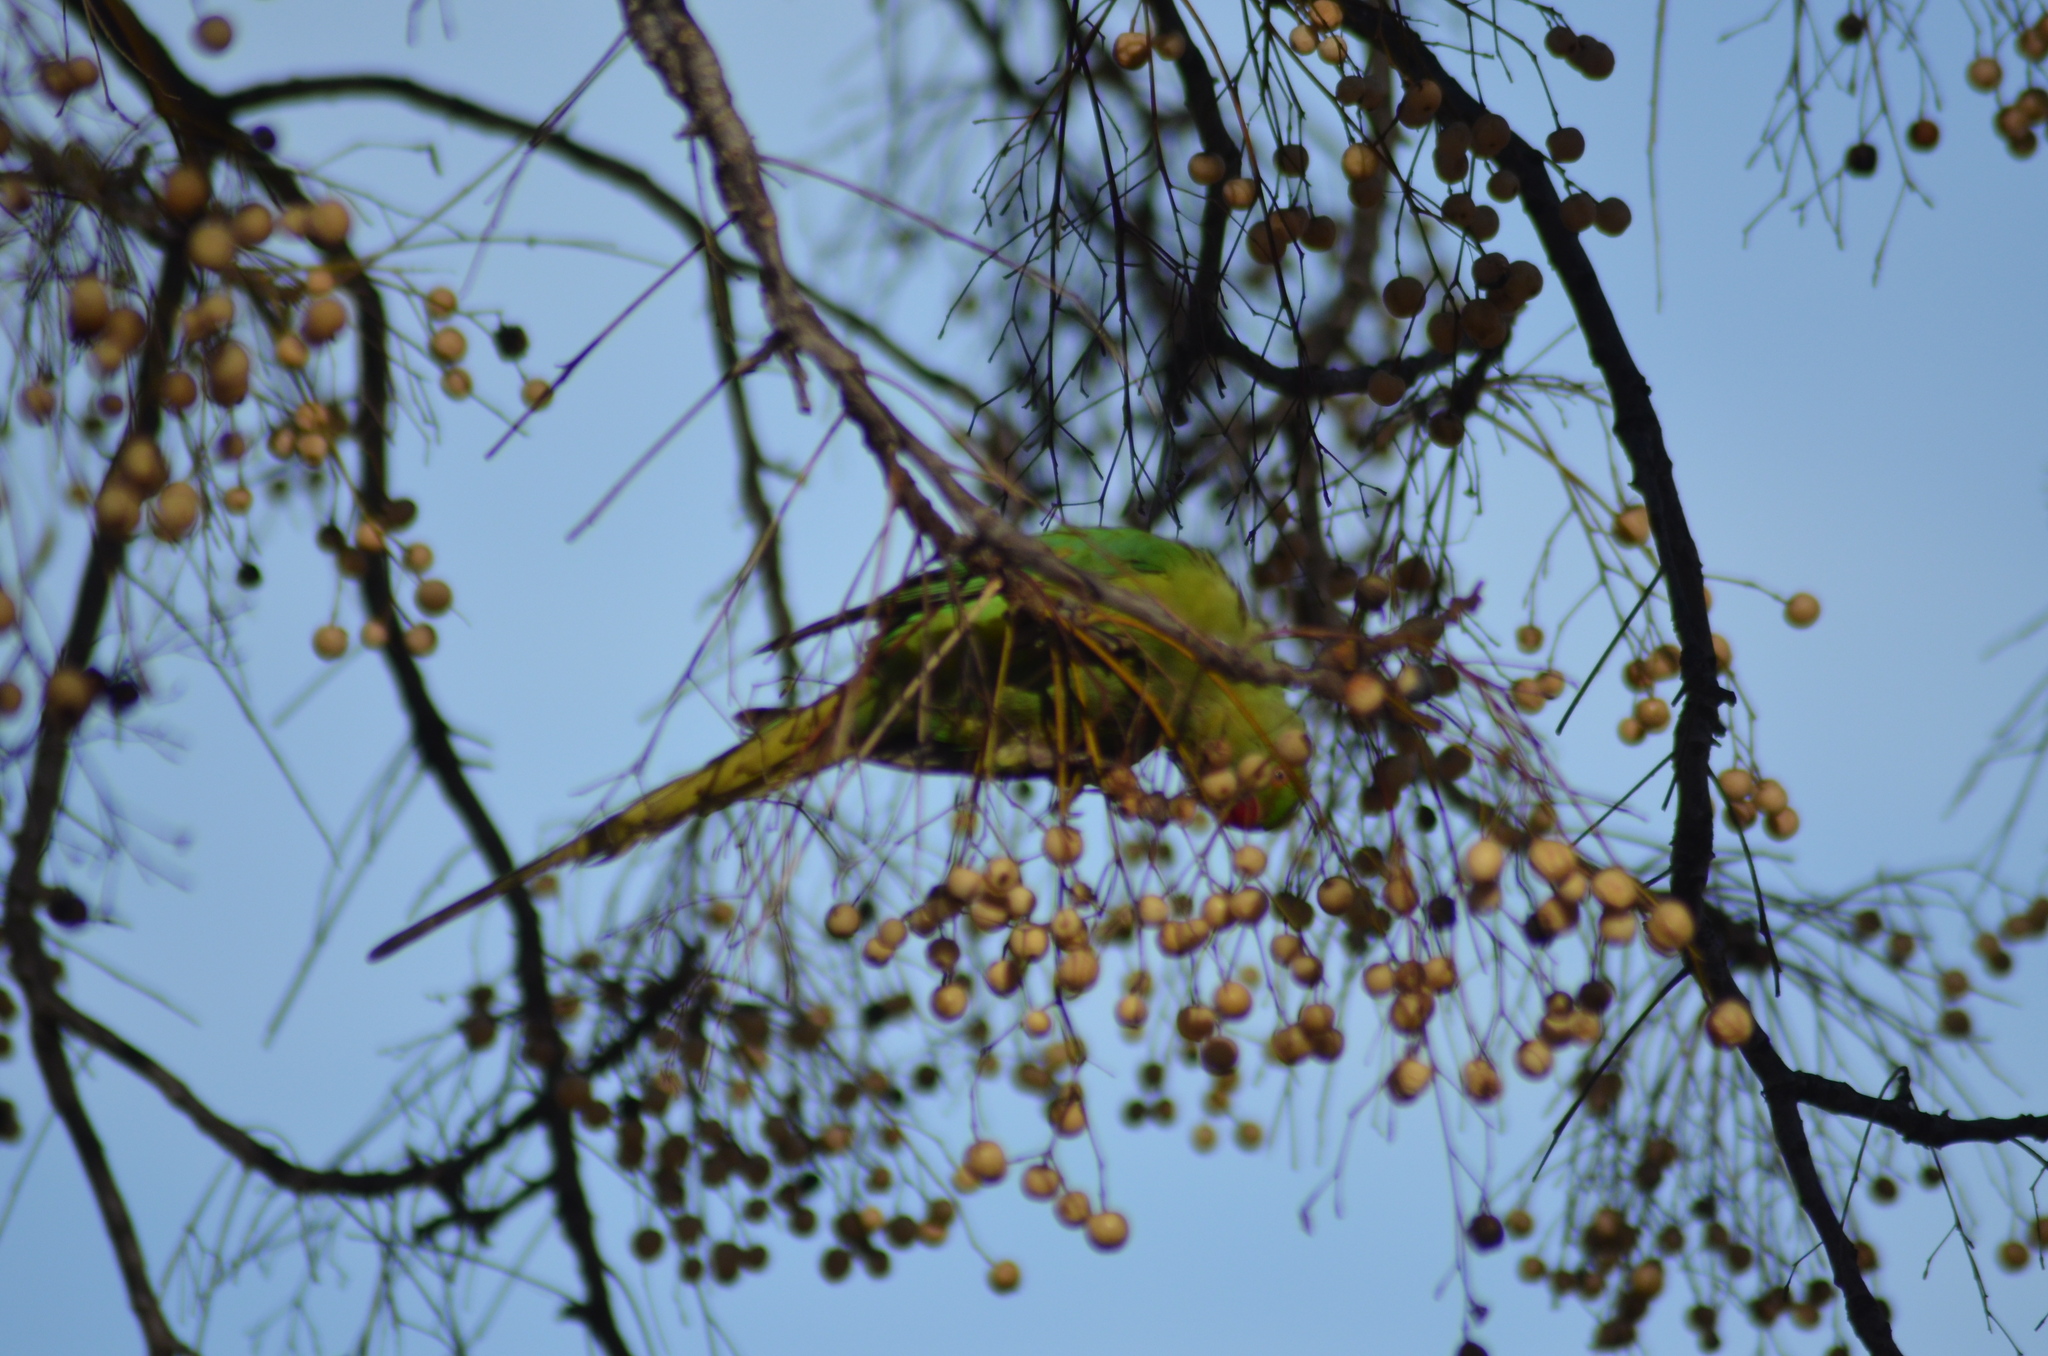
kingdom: Animalia
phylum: Chordata
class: Aves
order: Psittaciformes
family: Psittacidae
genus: Psittacula
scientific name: Psittacula krameri
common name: Rose-ringed parakeet
